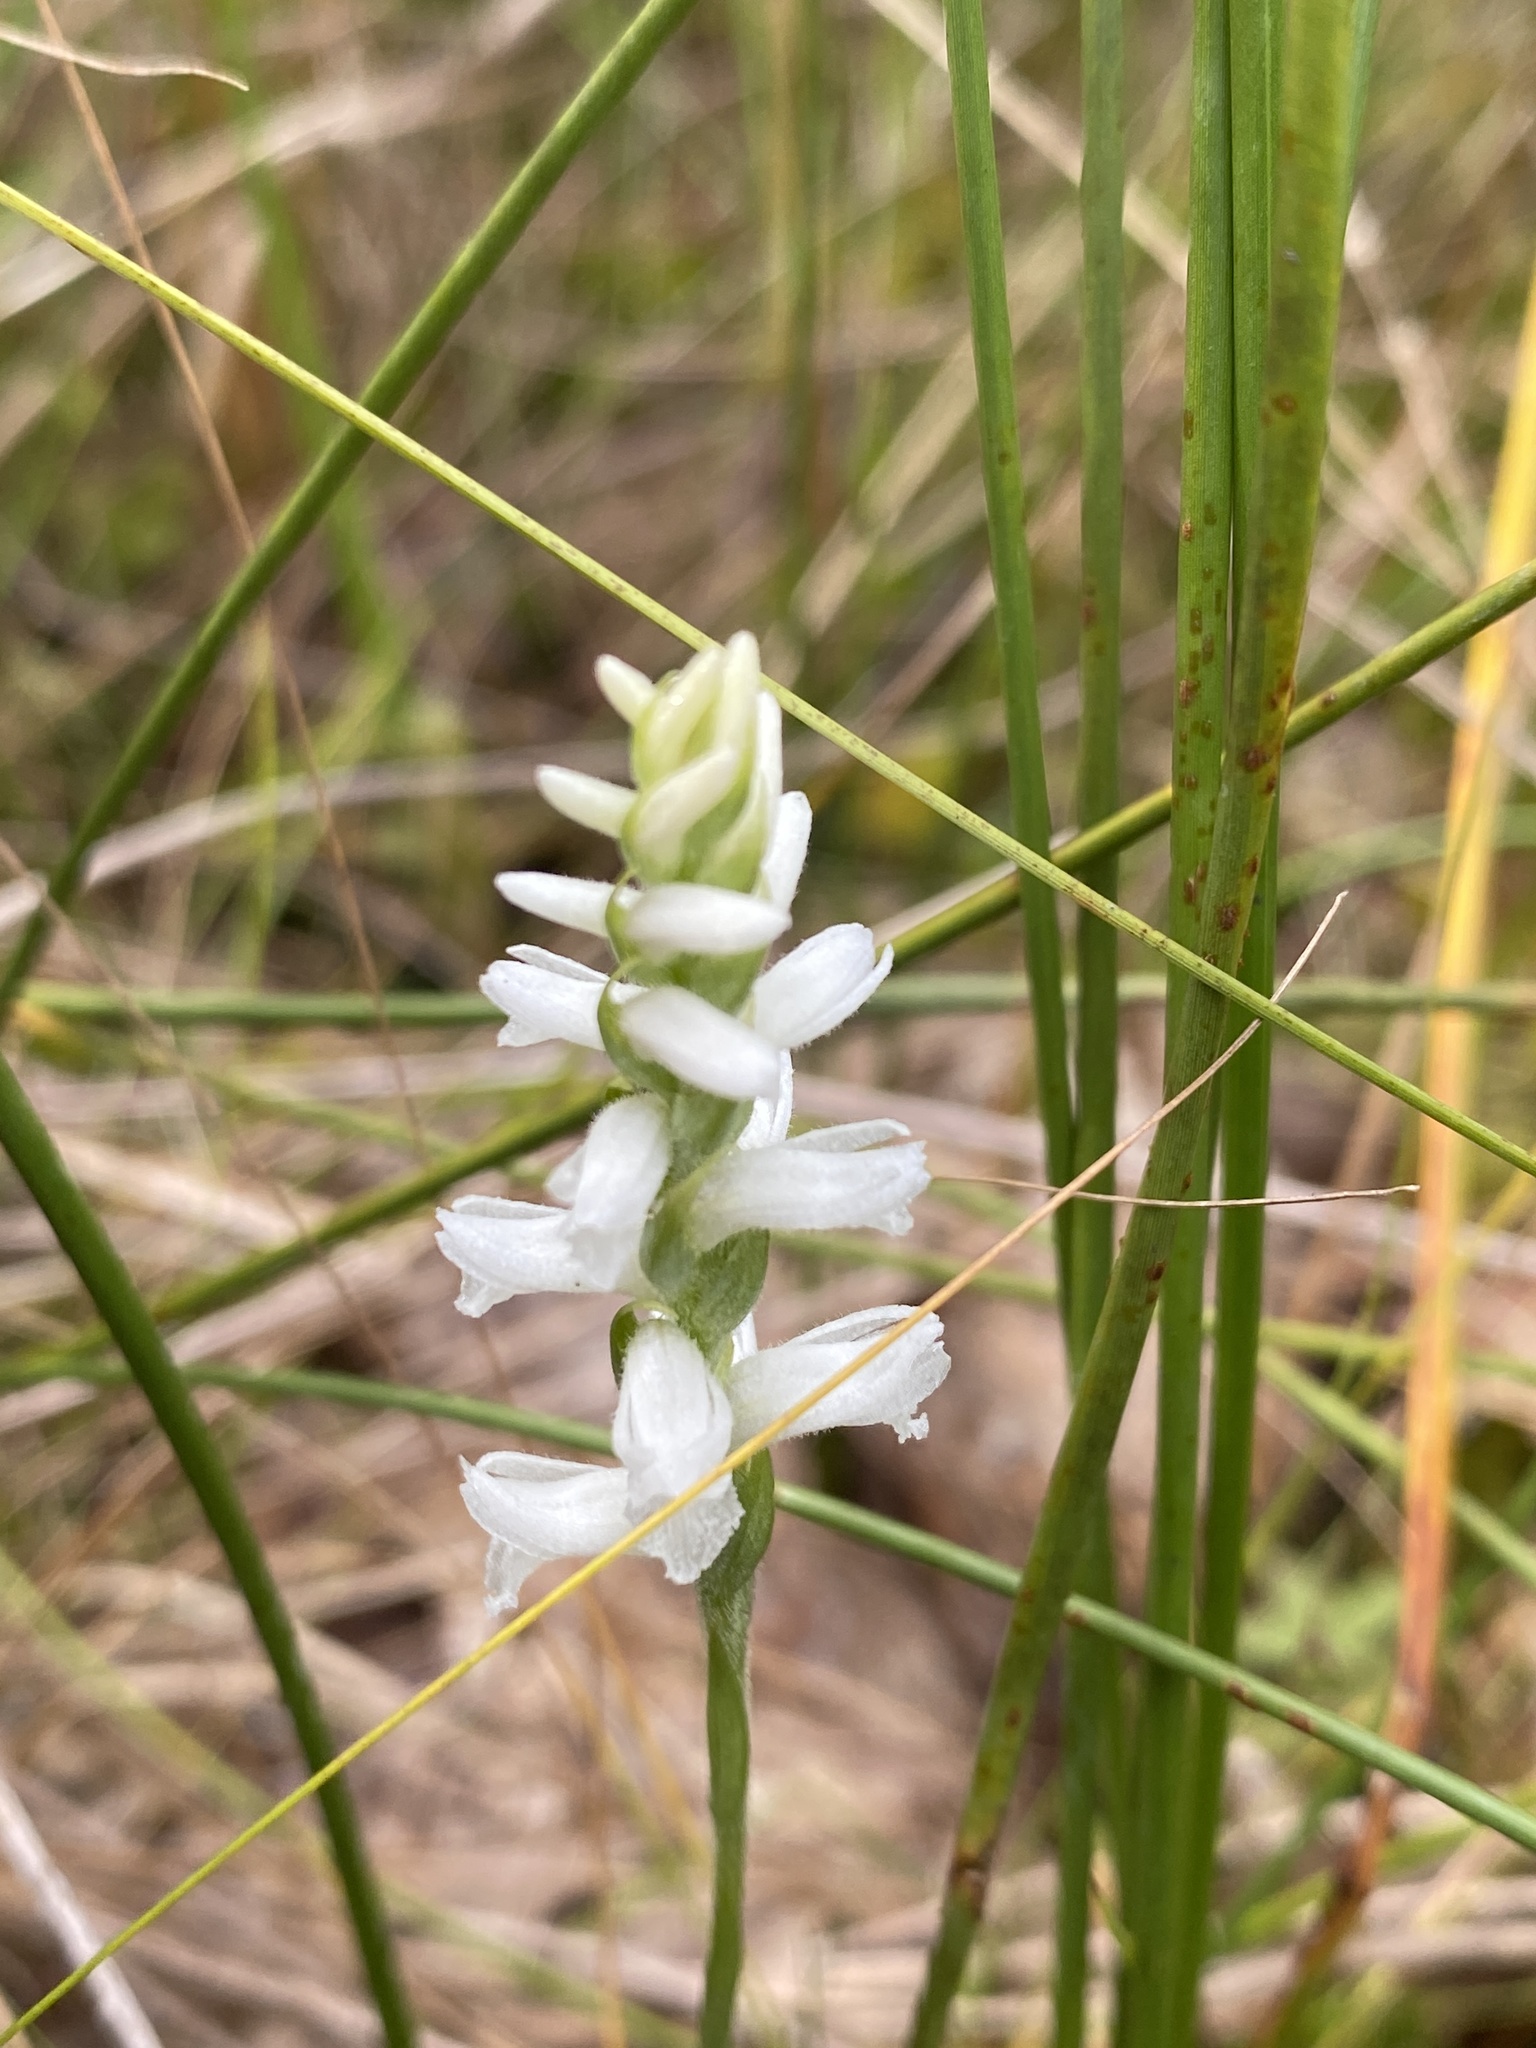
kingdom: Plantae
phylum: Tracheophyta
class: Liliopsida
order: Asparagales
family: Orchidaceae
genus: Spiranthes
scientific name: Spiranthes cernua
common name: Dropping ladies'-tresses
